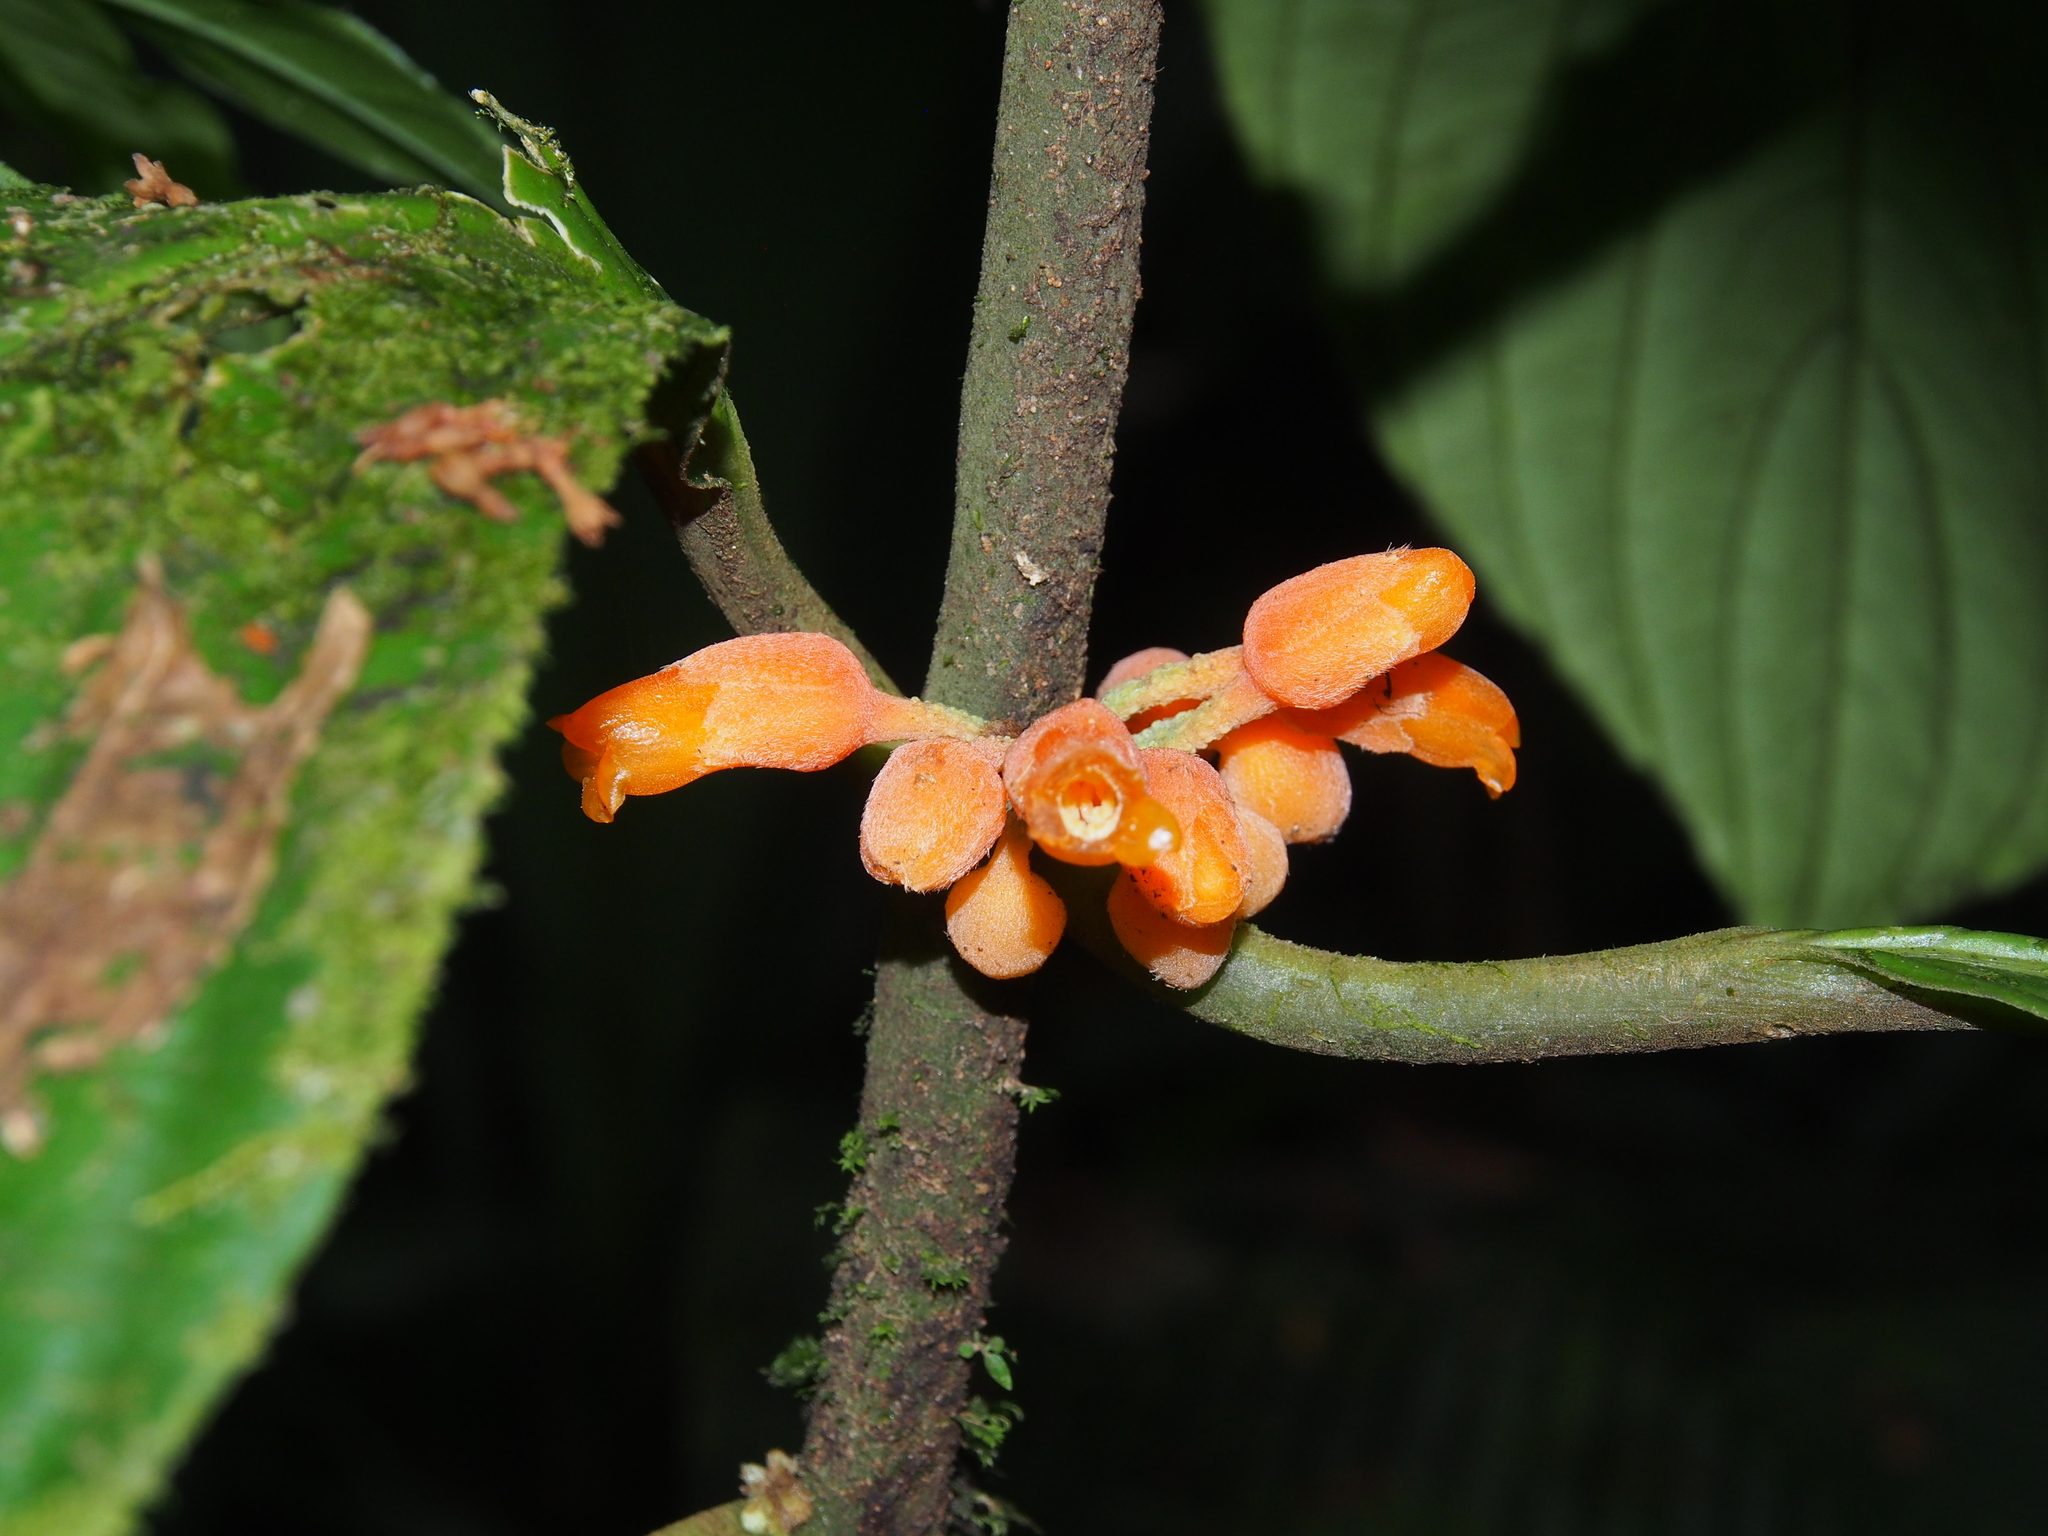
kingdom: Plantae
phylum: Tracheophyta
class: Magnoliopsida
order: Lamiales
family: Gesneriaceae
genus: Besleria
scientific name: Besleria robusta
